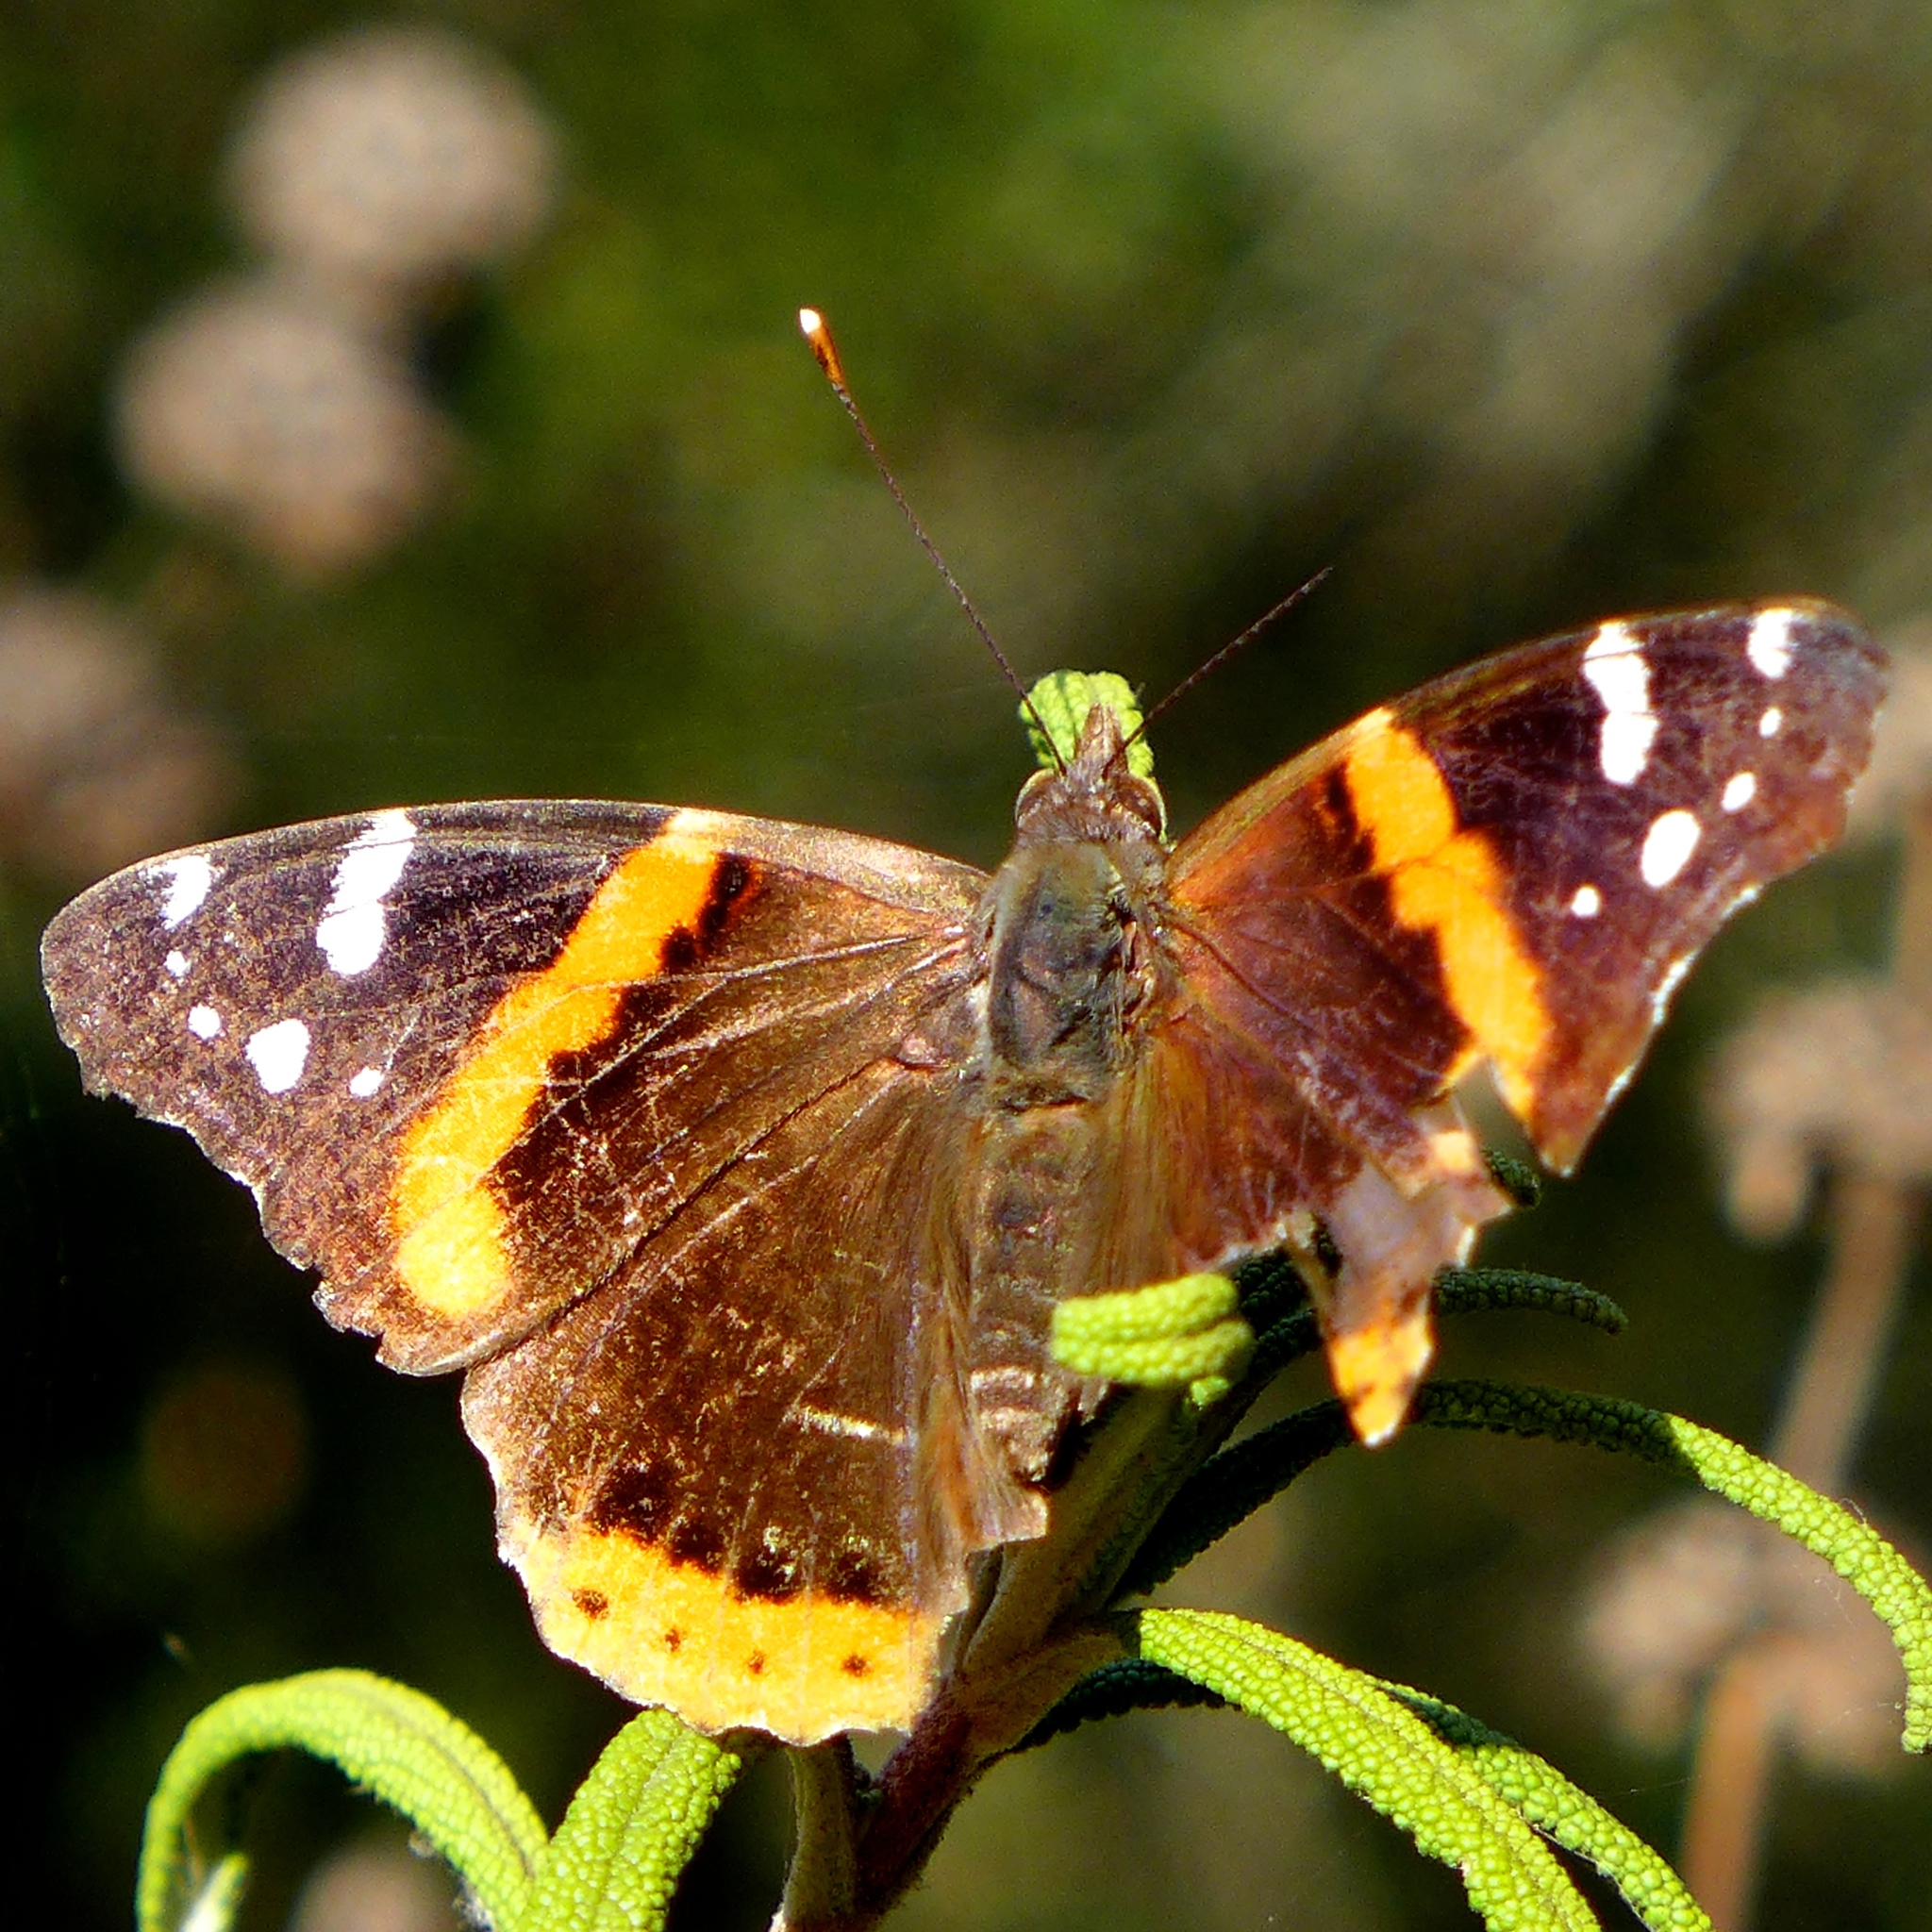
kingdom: Animalia
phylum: Arthropoda
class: Insecta
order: Lepidoptera
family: Nymphalidae
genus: Vanessa
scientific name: Vanessa atalanta
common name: Red admiral
